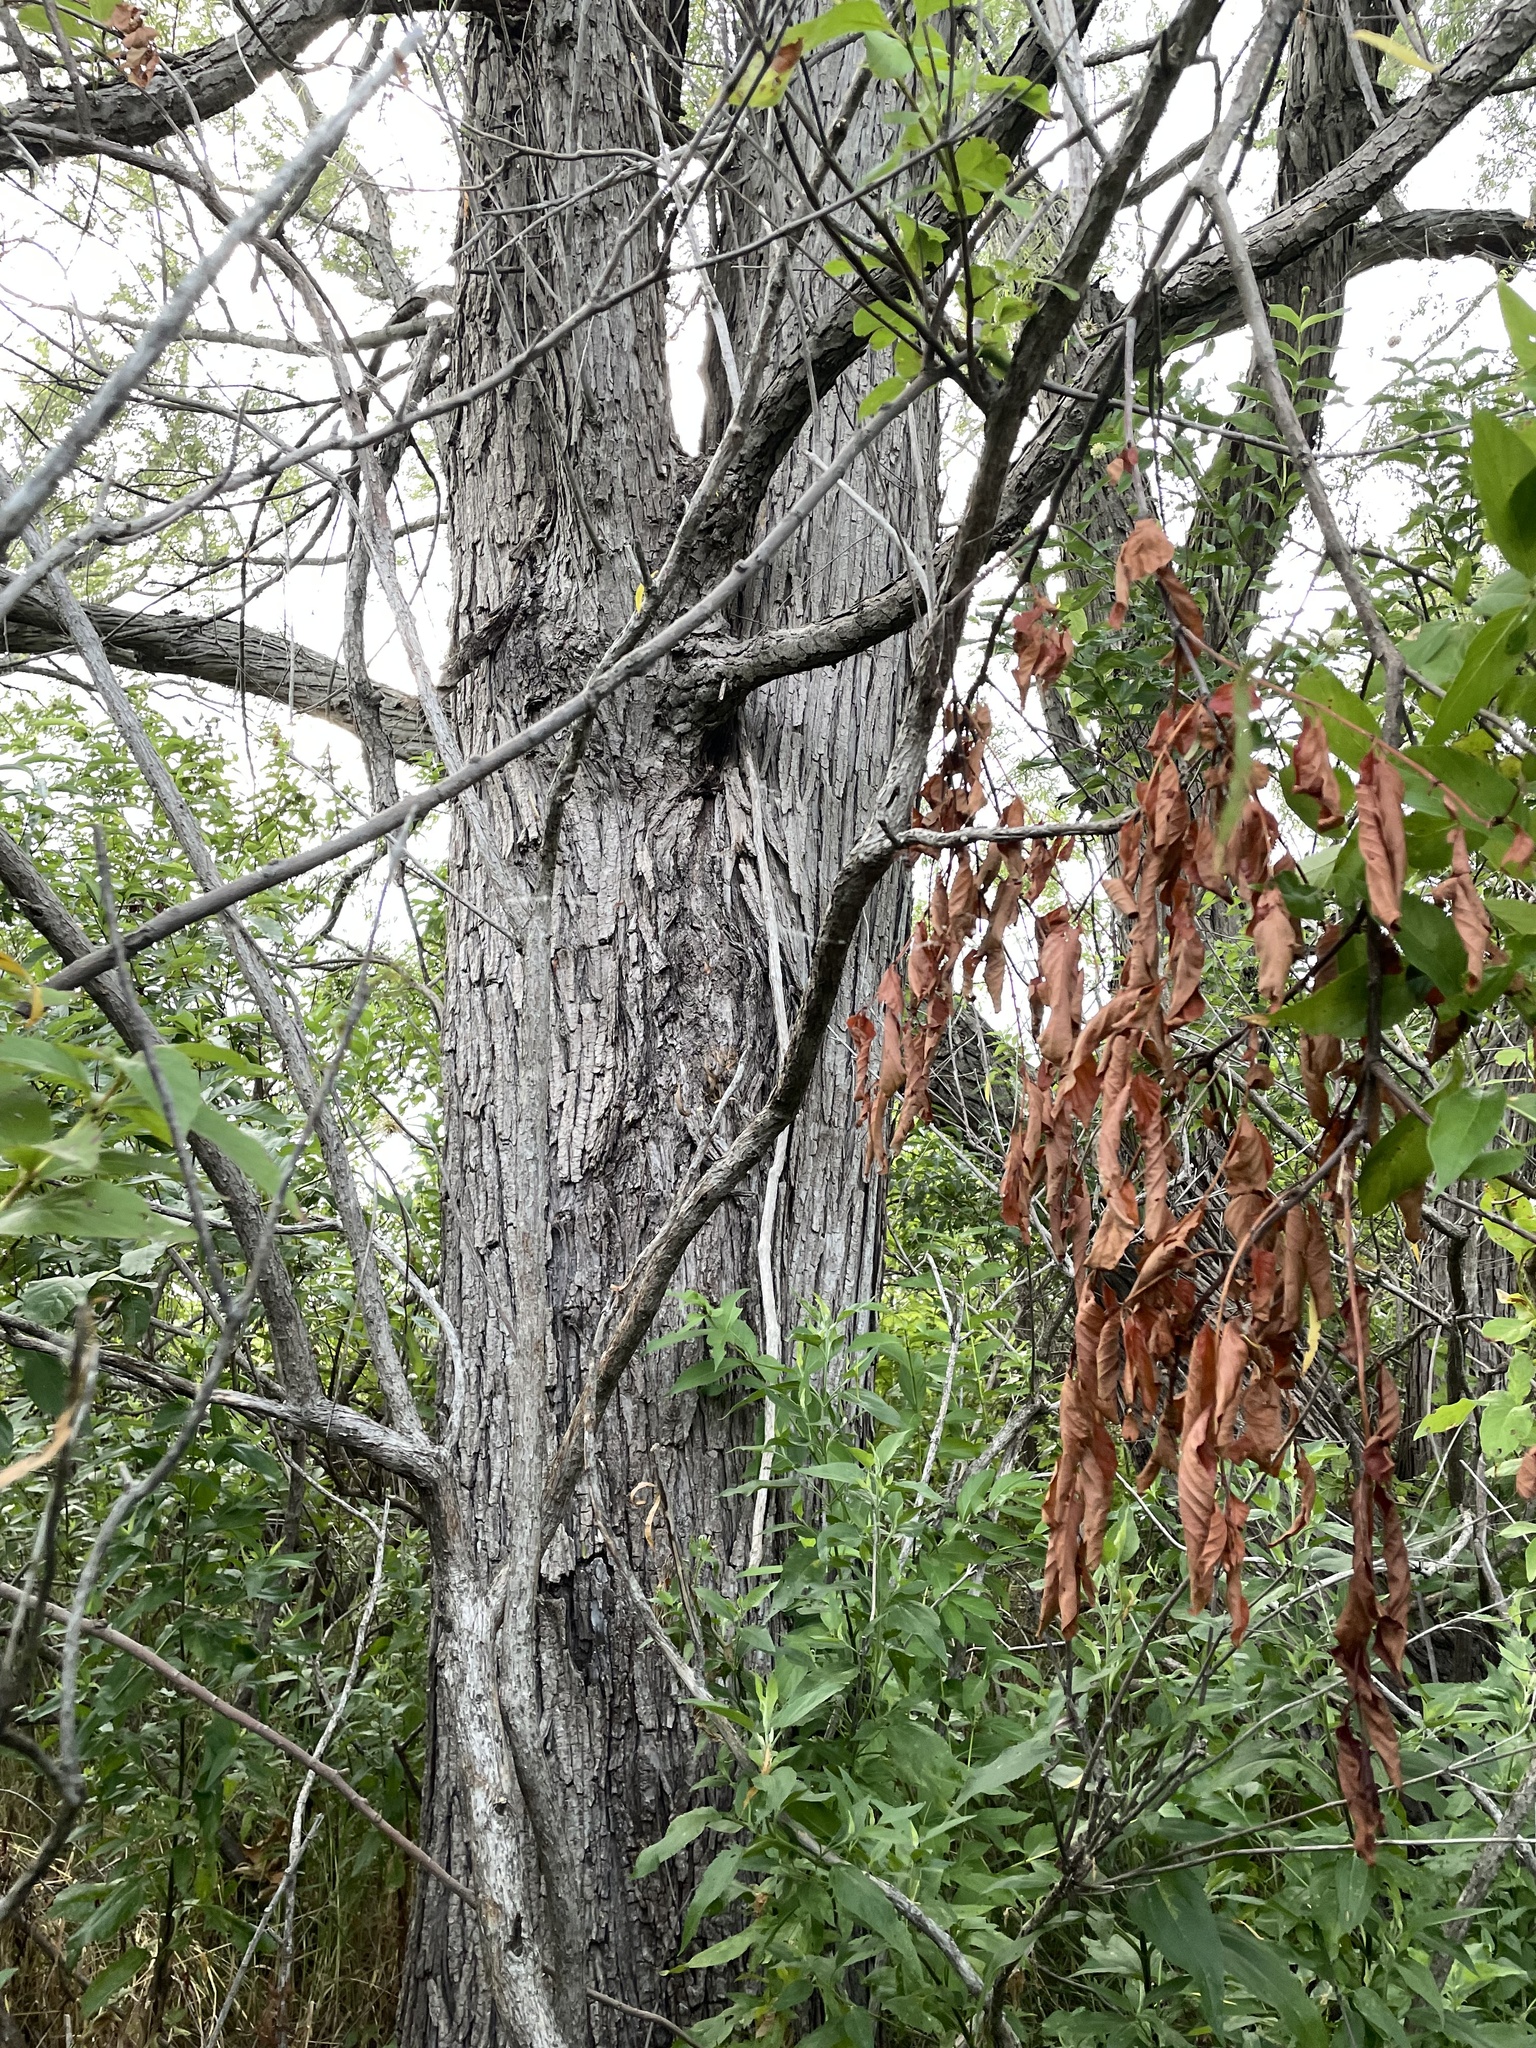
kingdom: Plantae
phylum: Tracheophyta
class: Magnoliopsida
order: Malpighiales
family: Salicaceae
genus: Salix
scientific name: Salix nigra
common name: Black willow
